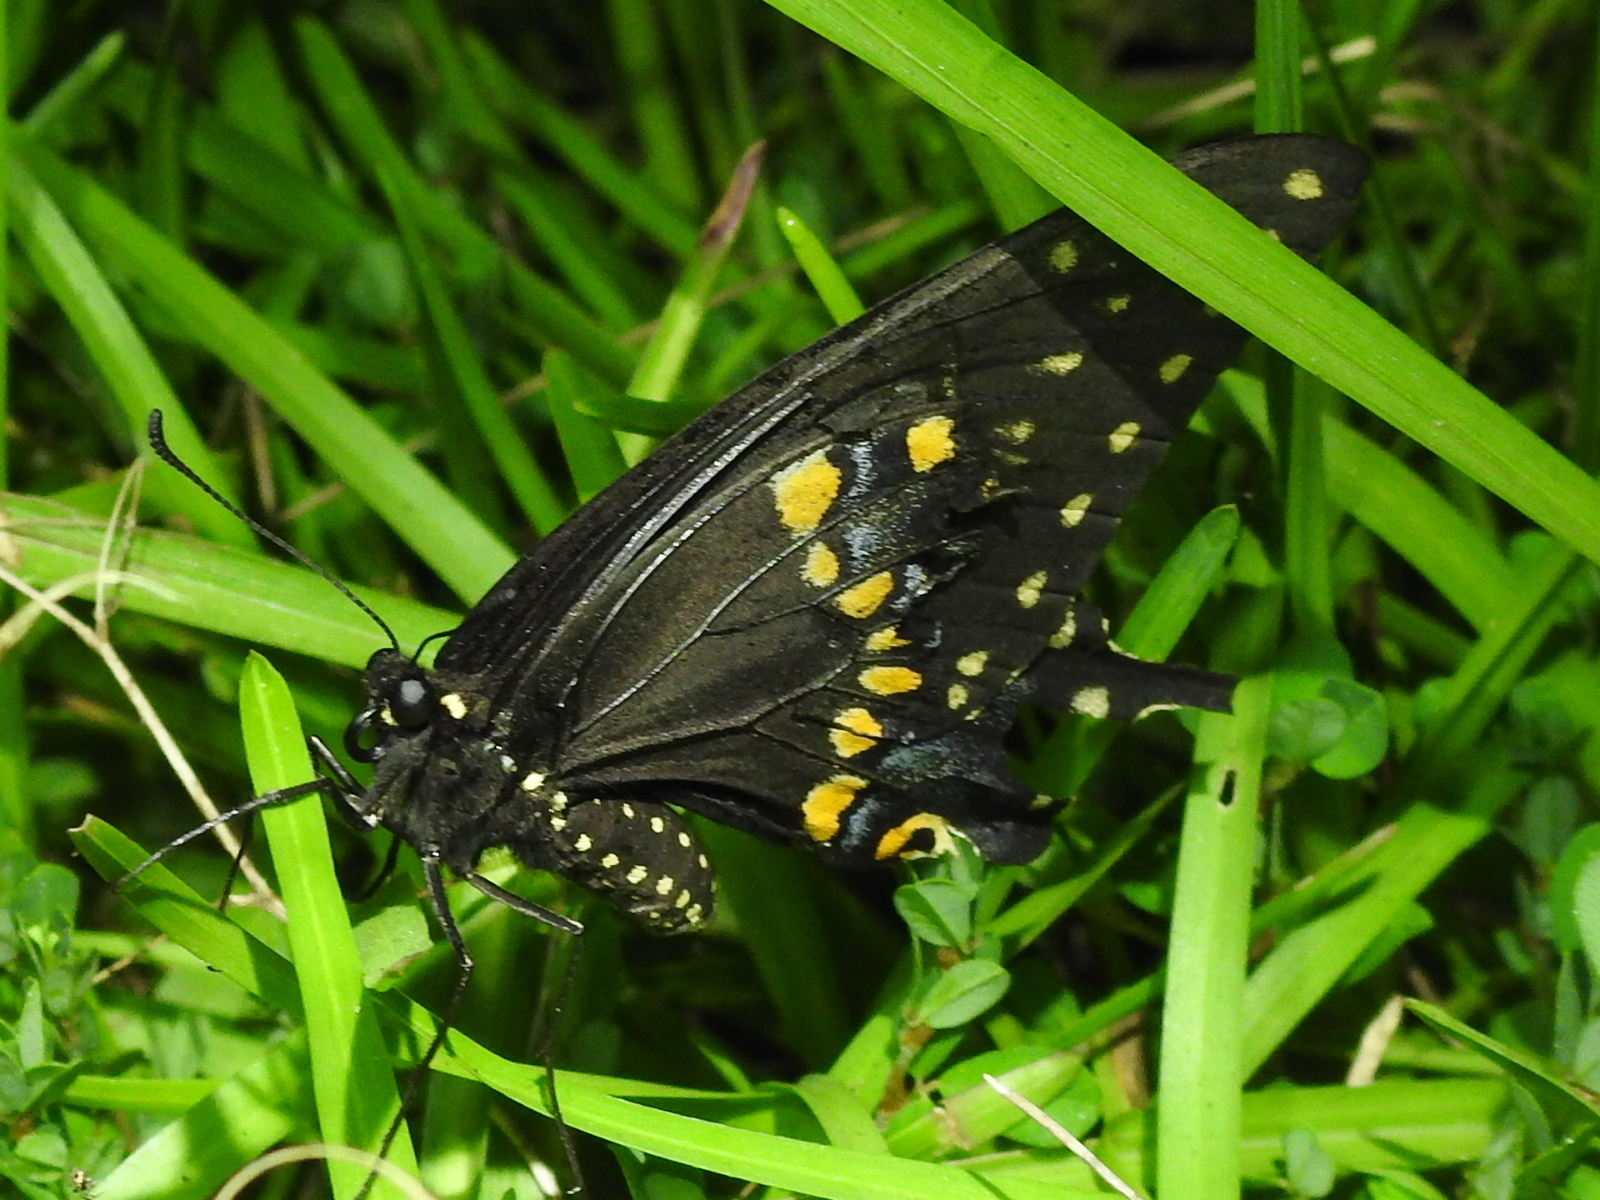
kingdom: Animalia
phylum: Arthropoda
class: Insecta
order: Lepidoptera
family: Papilionidae
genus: Papilio
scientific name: Papilio polyxenes
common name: Black swallowtail
